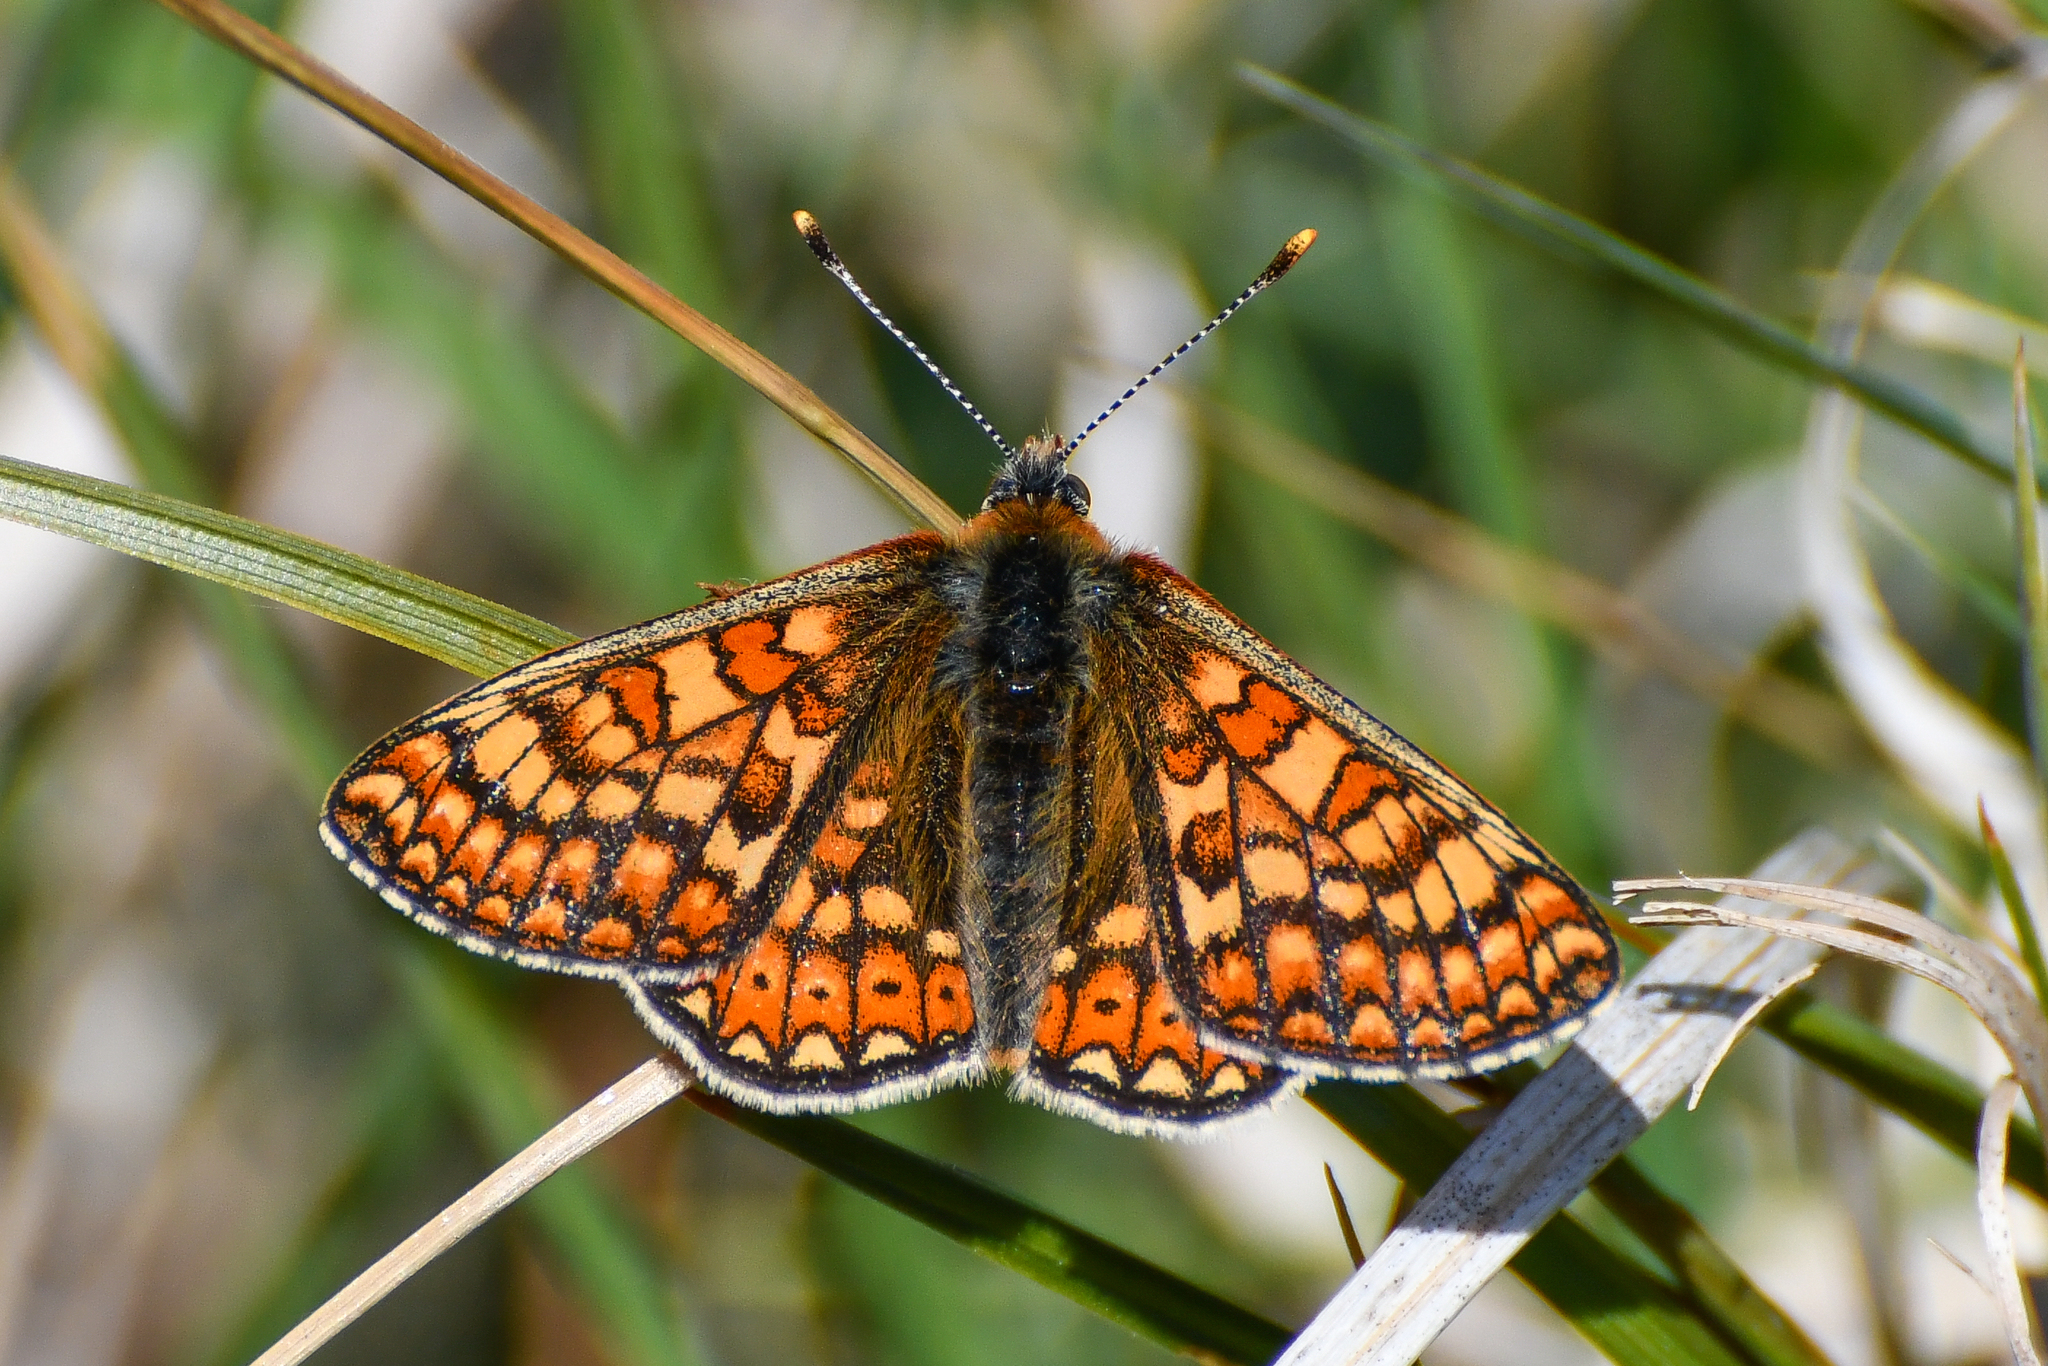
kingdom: Animalia
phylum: Arthropoda
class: Insecta
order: Lepidoptera
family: Nymphalidae
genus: Euphydryas
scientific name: Euphydryas aurinia
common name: Marsh fritillary
